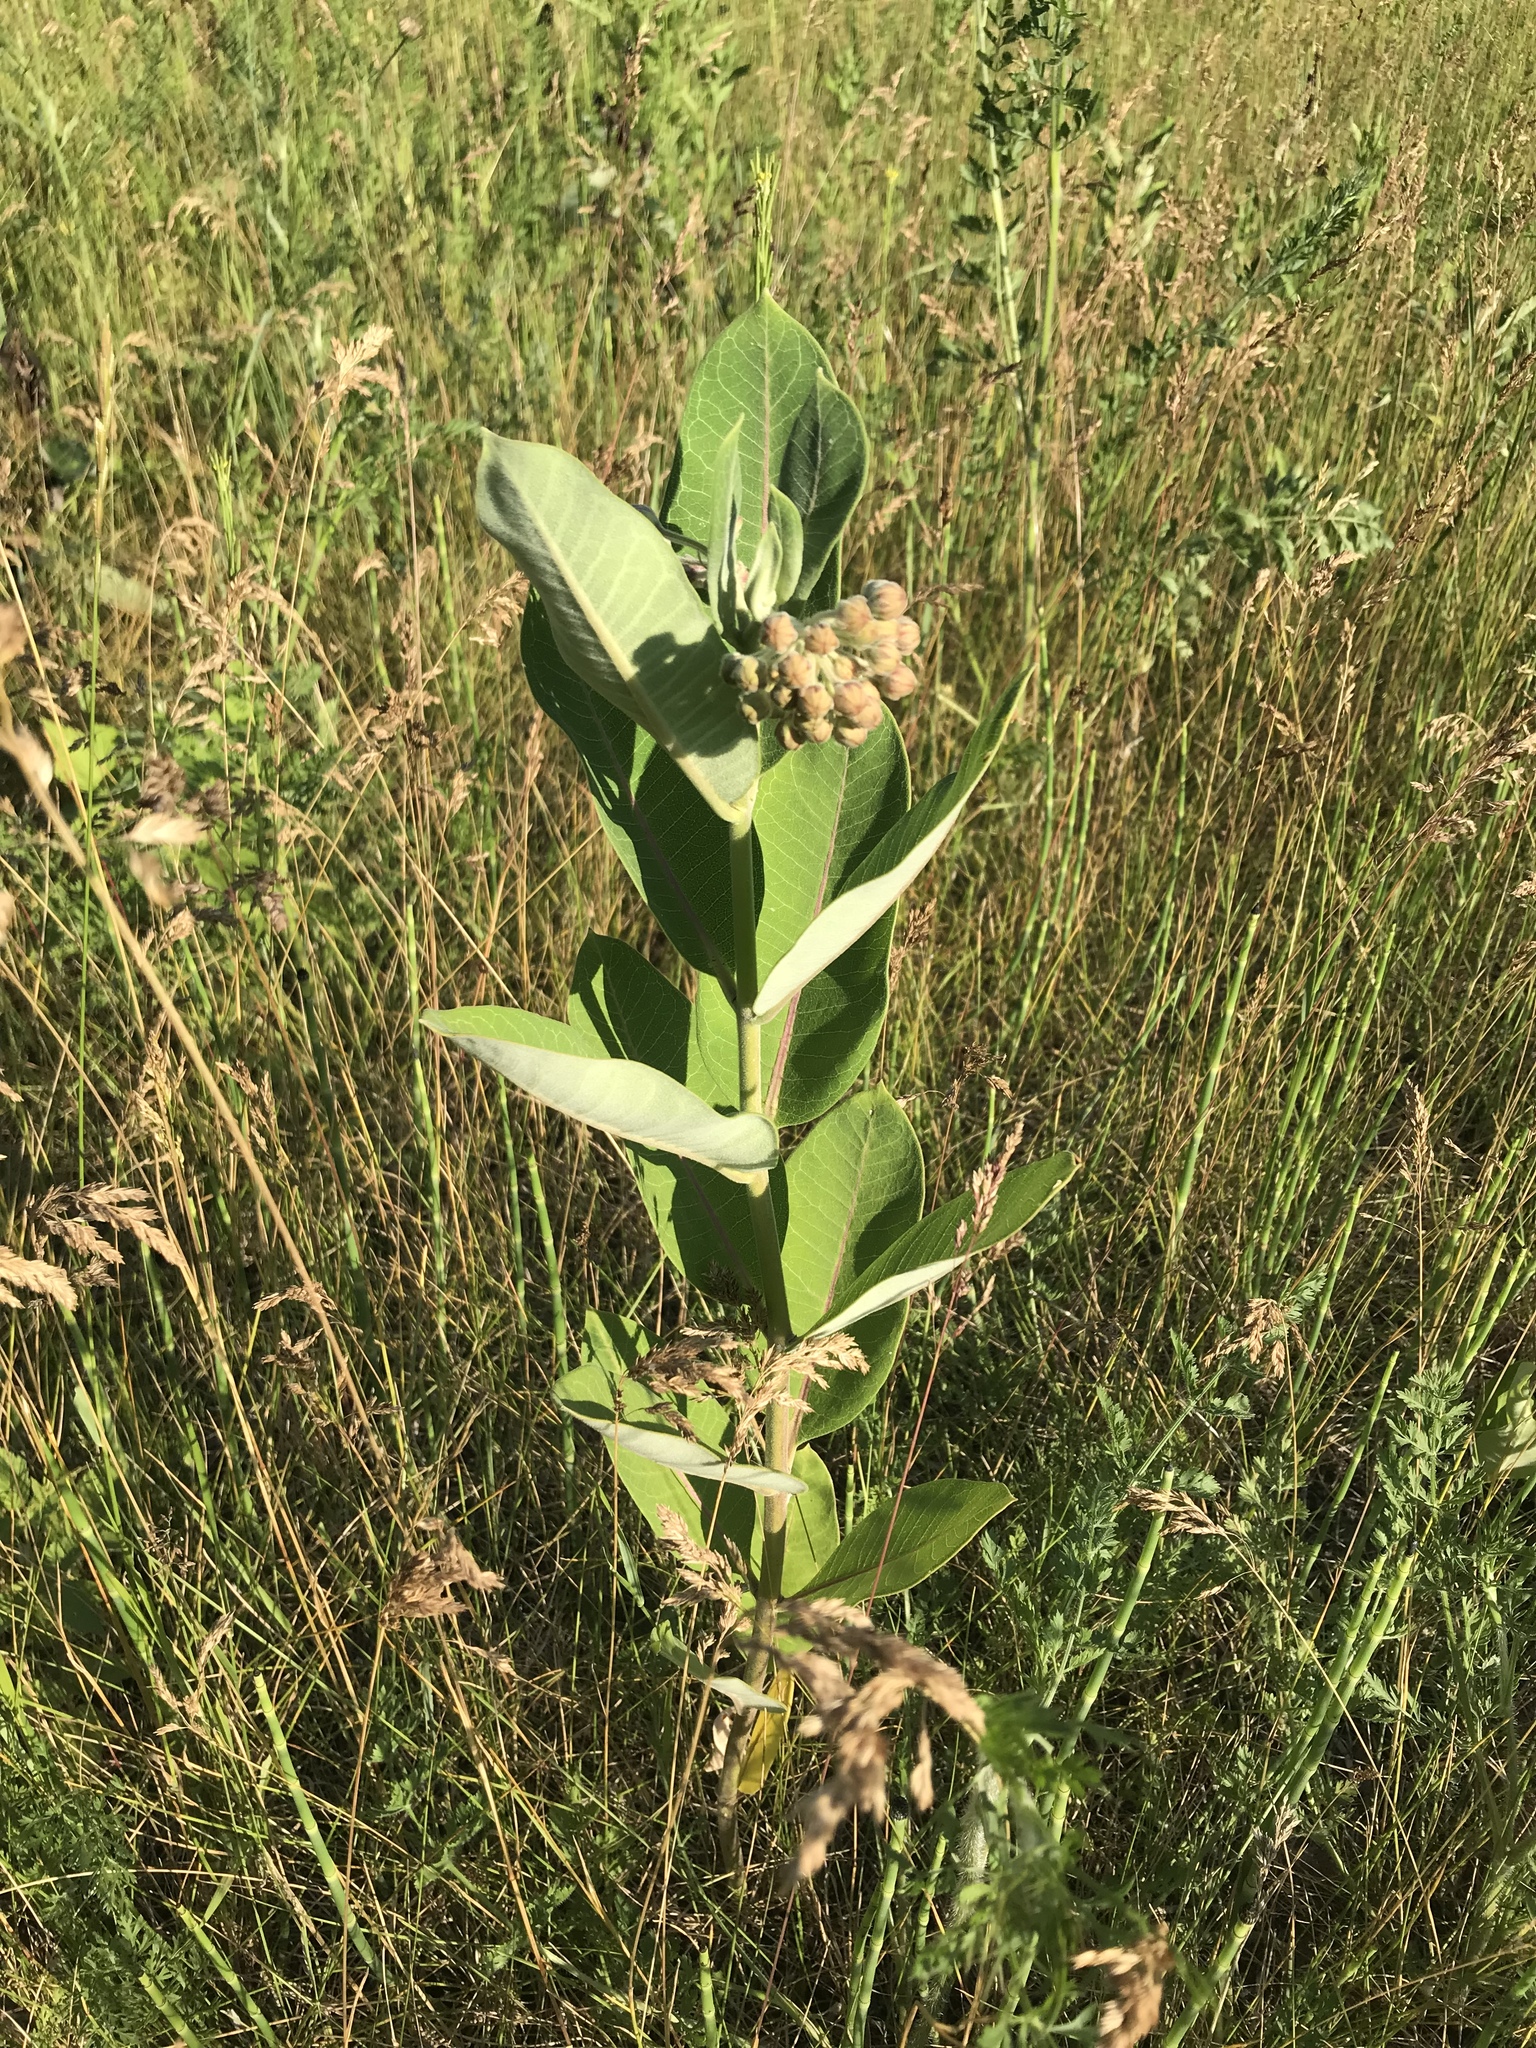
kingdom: Plantae
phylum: Tracheophyta
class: Magnoliopsida
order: Gentianales
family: Apocynaceae
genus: Asclepias
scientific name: Asclepias syriaca
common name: Common milkweed
